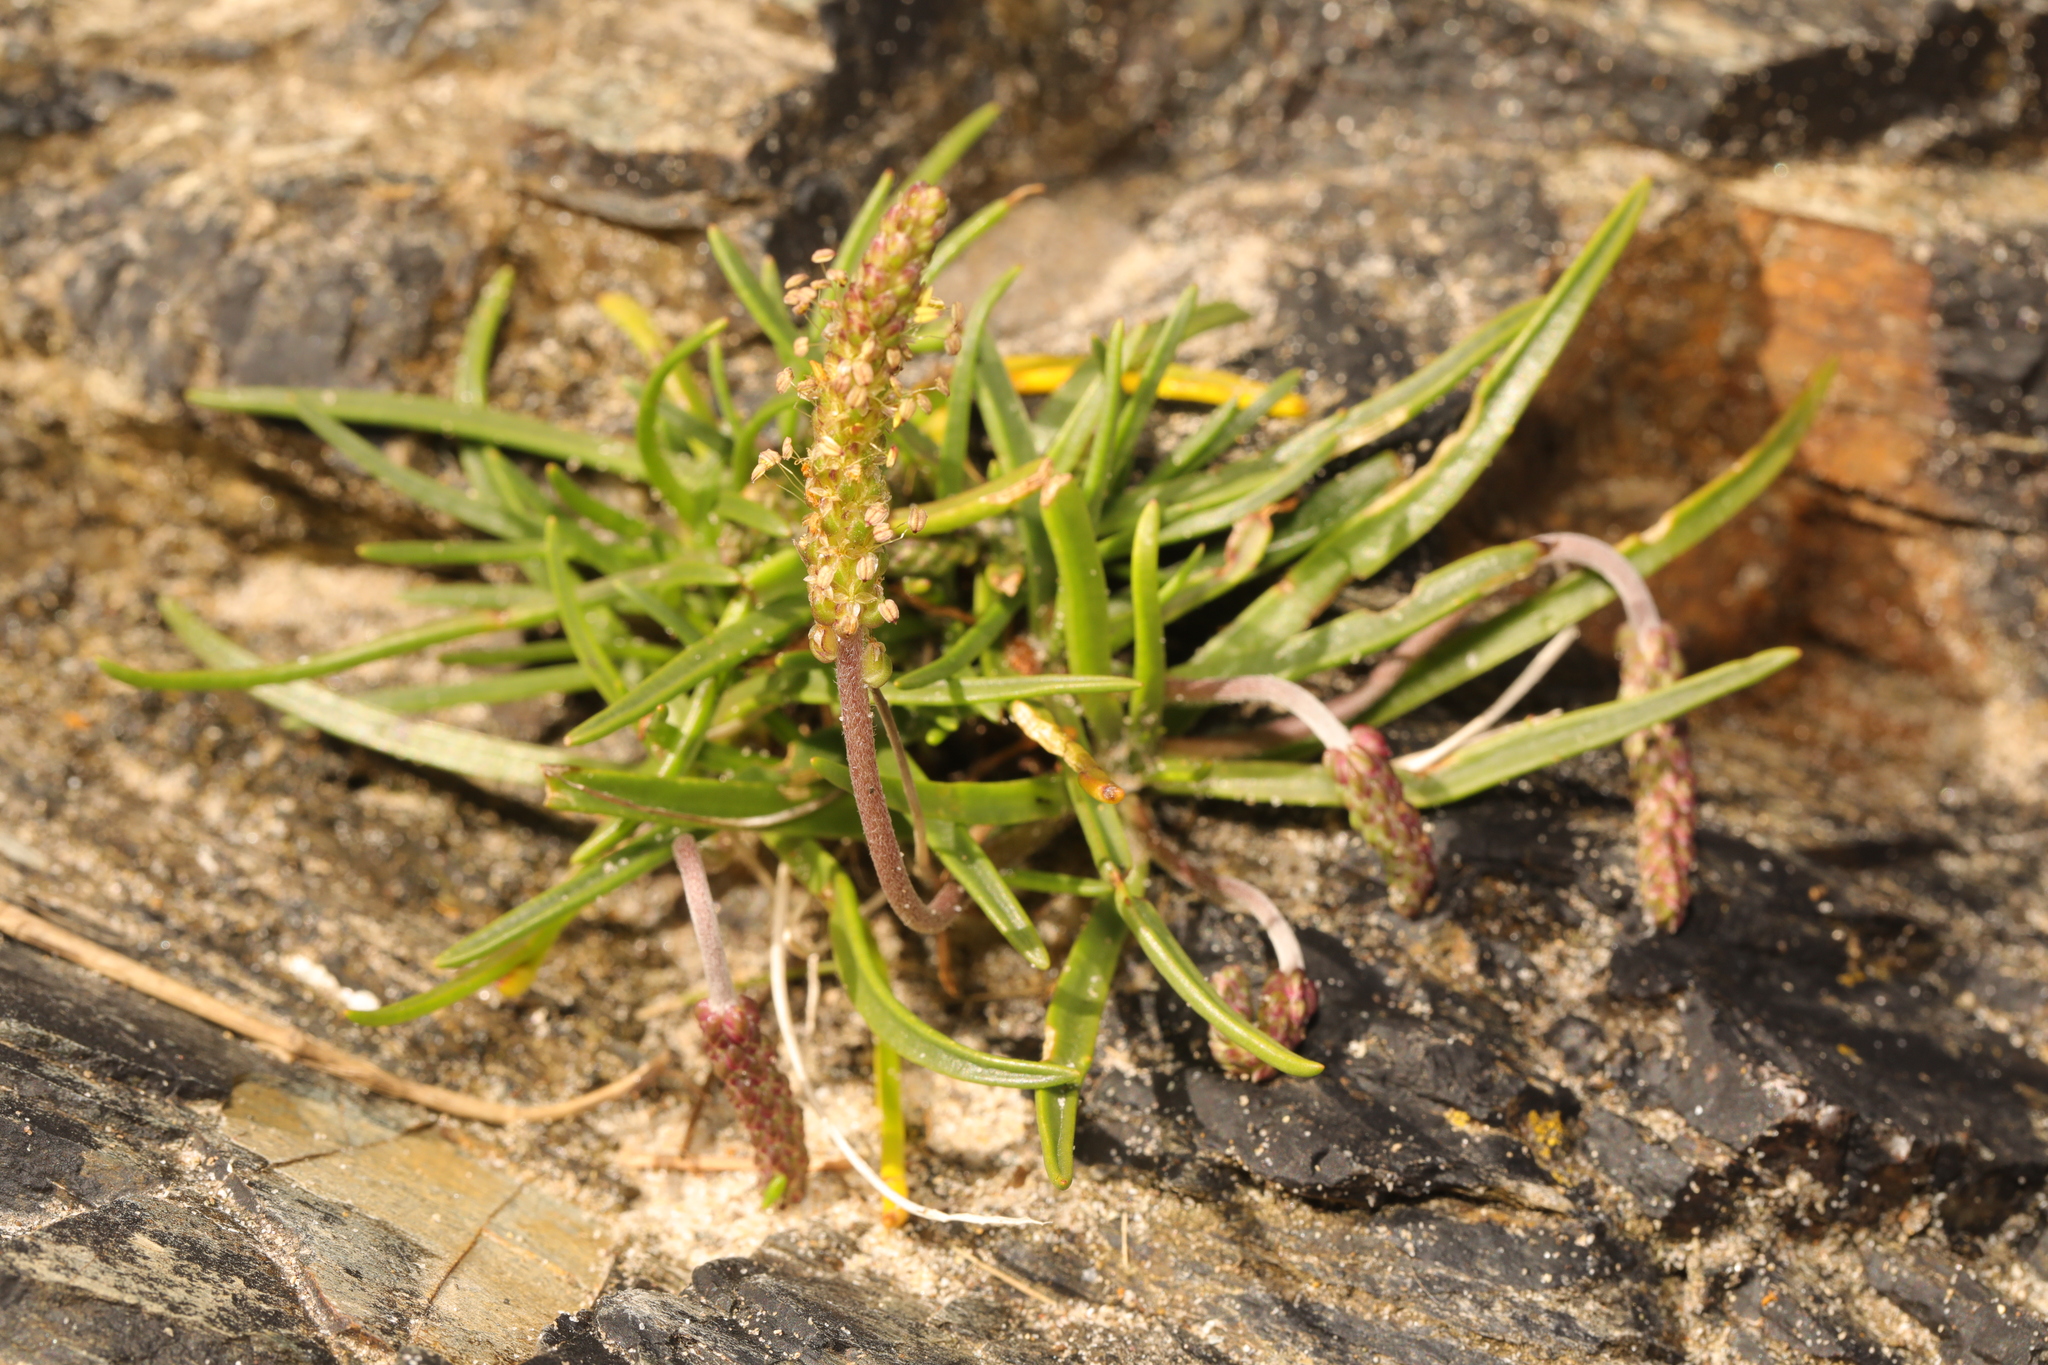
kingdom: Plantae
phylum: Tracheophyta
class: Magnoliopsida
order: Lamiales
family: Plantaginaceae
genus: Plantago
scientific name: Plantago maritima
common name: Sea plantain
